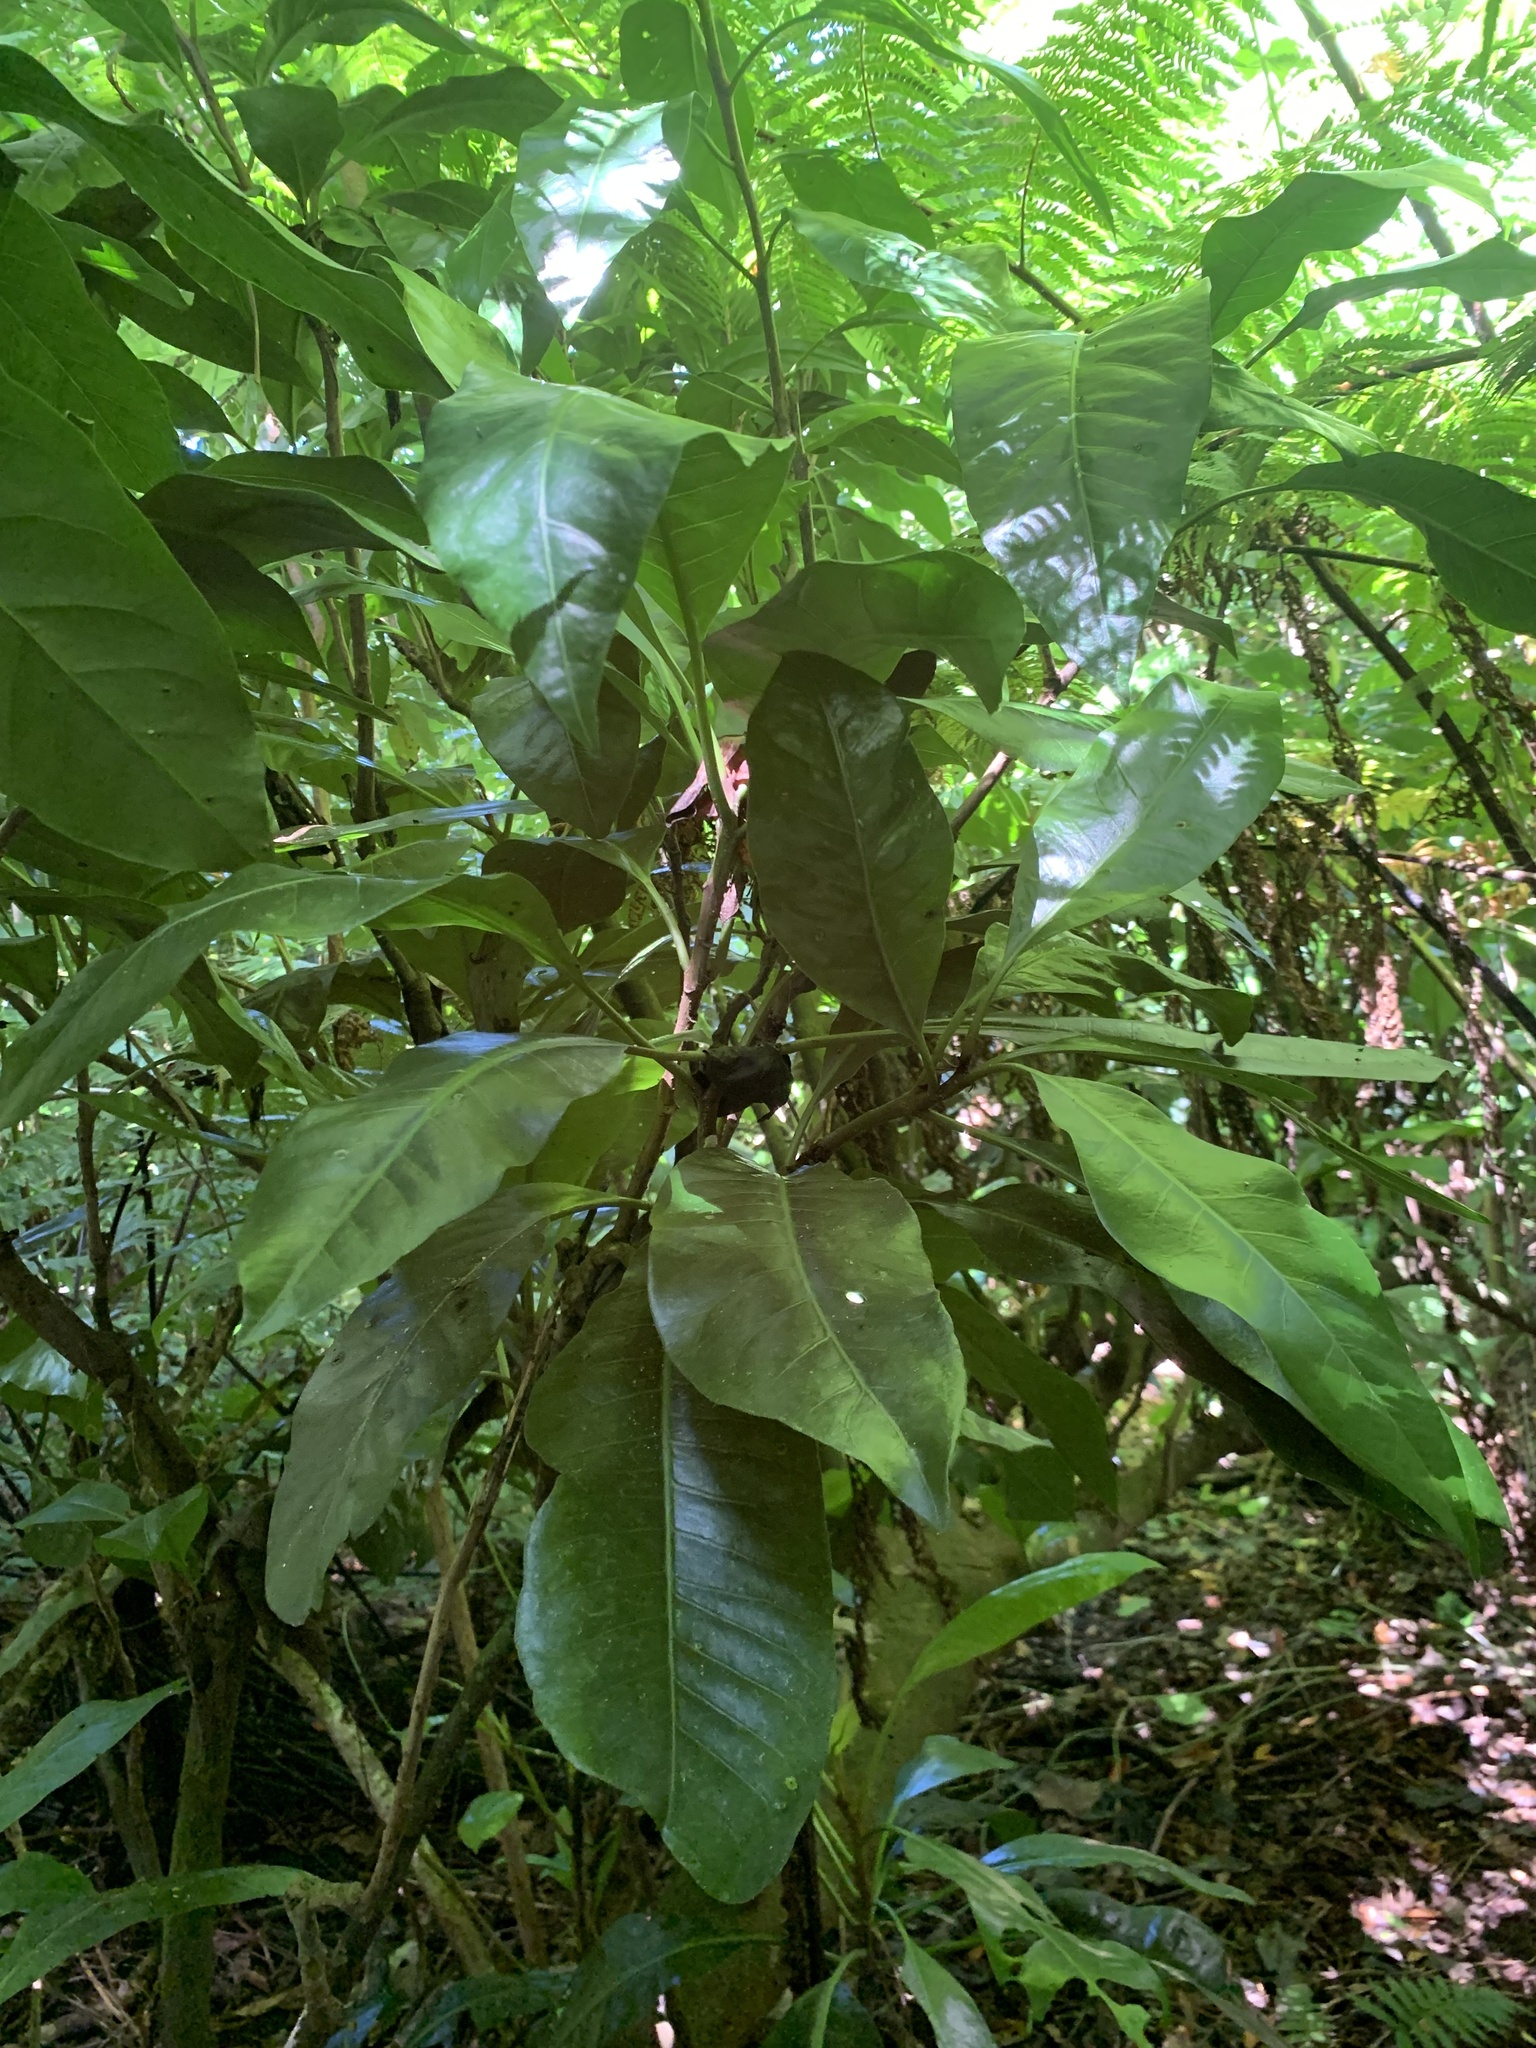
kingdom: Plantae
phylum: Tracheophyta
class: Magnoliopsida
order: Ericales
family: Sapotaceae
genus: Planchonella
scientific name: Planchonella obovata
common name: Black-ash
